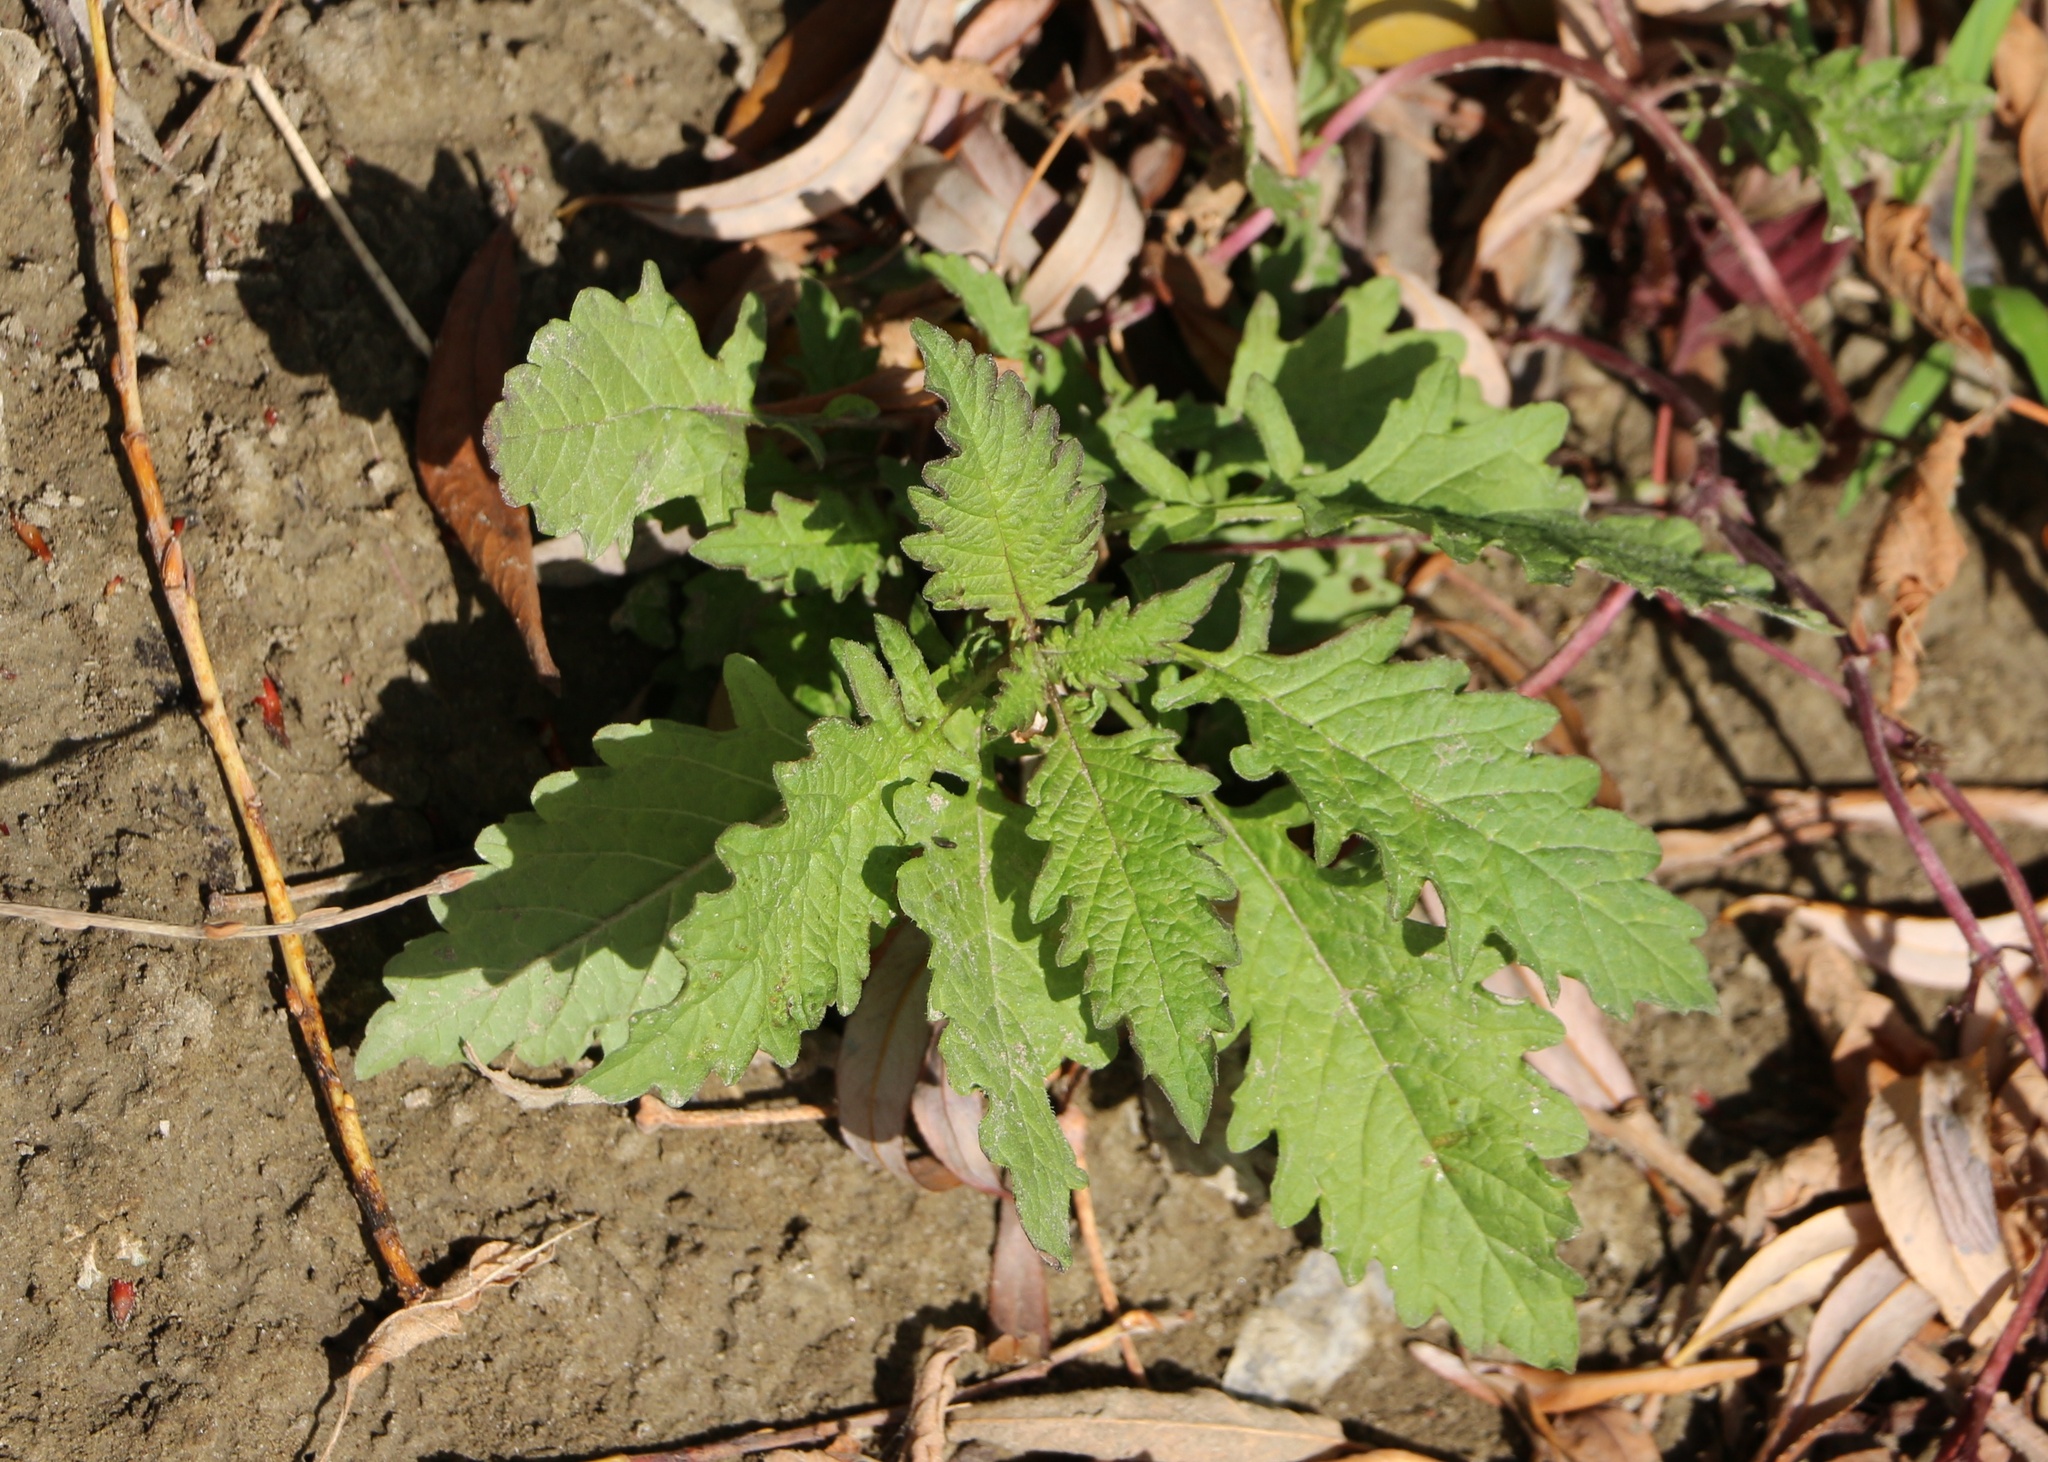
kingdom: Plantae
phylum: Tracheophyta
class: Magnoliopsida
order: Lamiales
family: Lamiaceae
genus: Lycopus
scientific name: Lycopus europaeus
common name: European bugleweed
